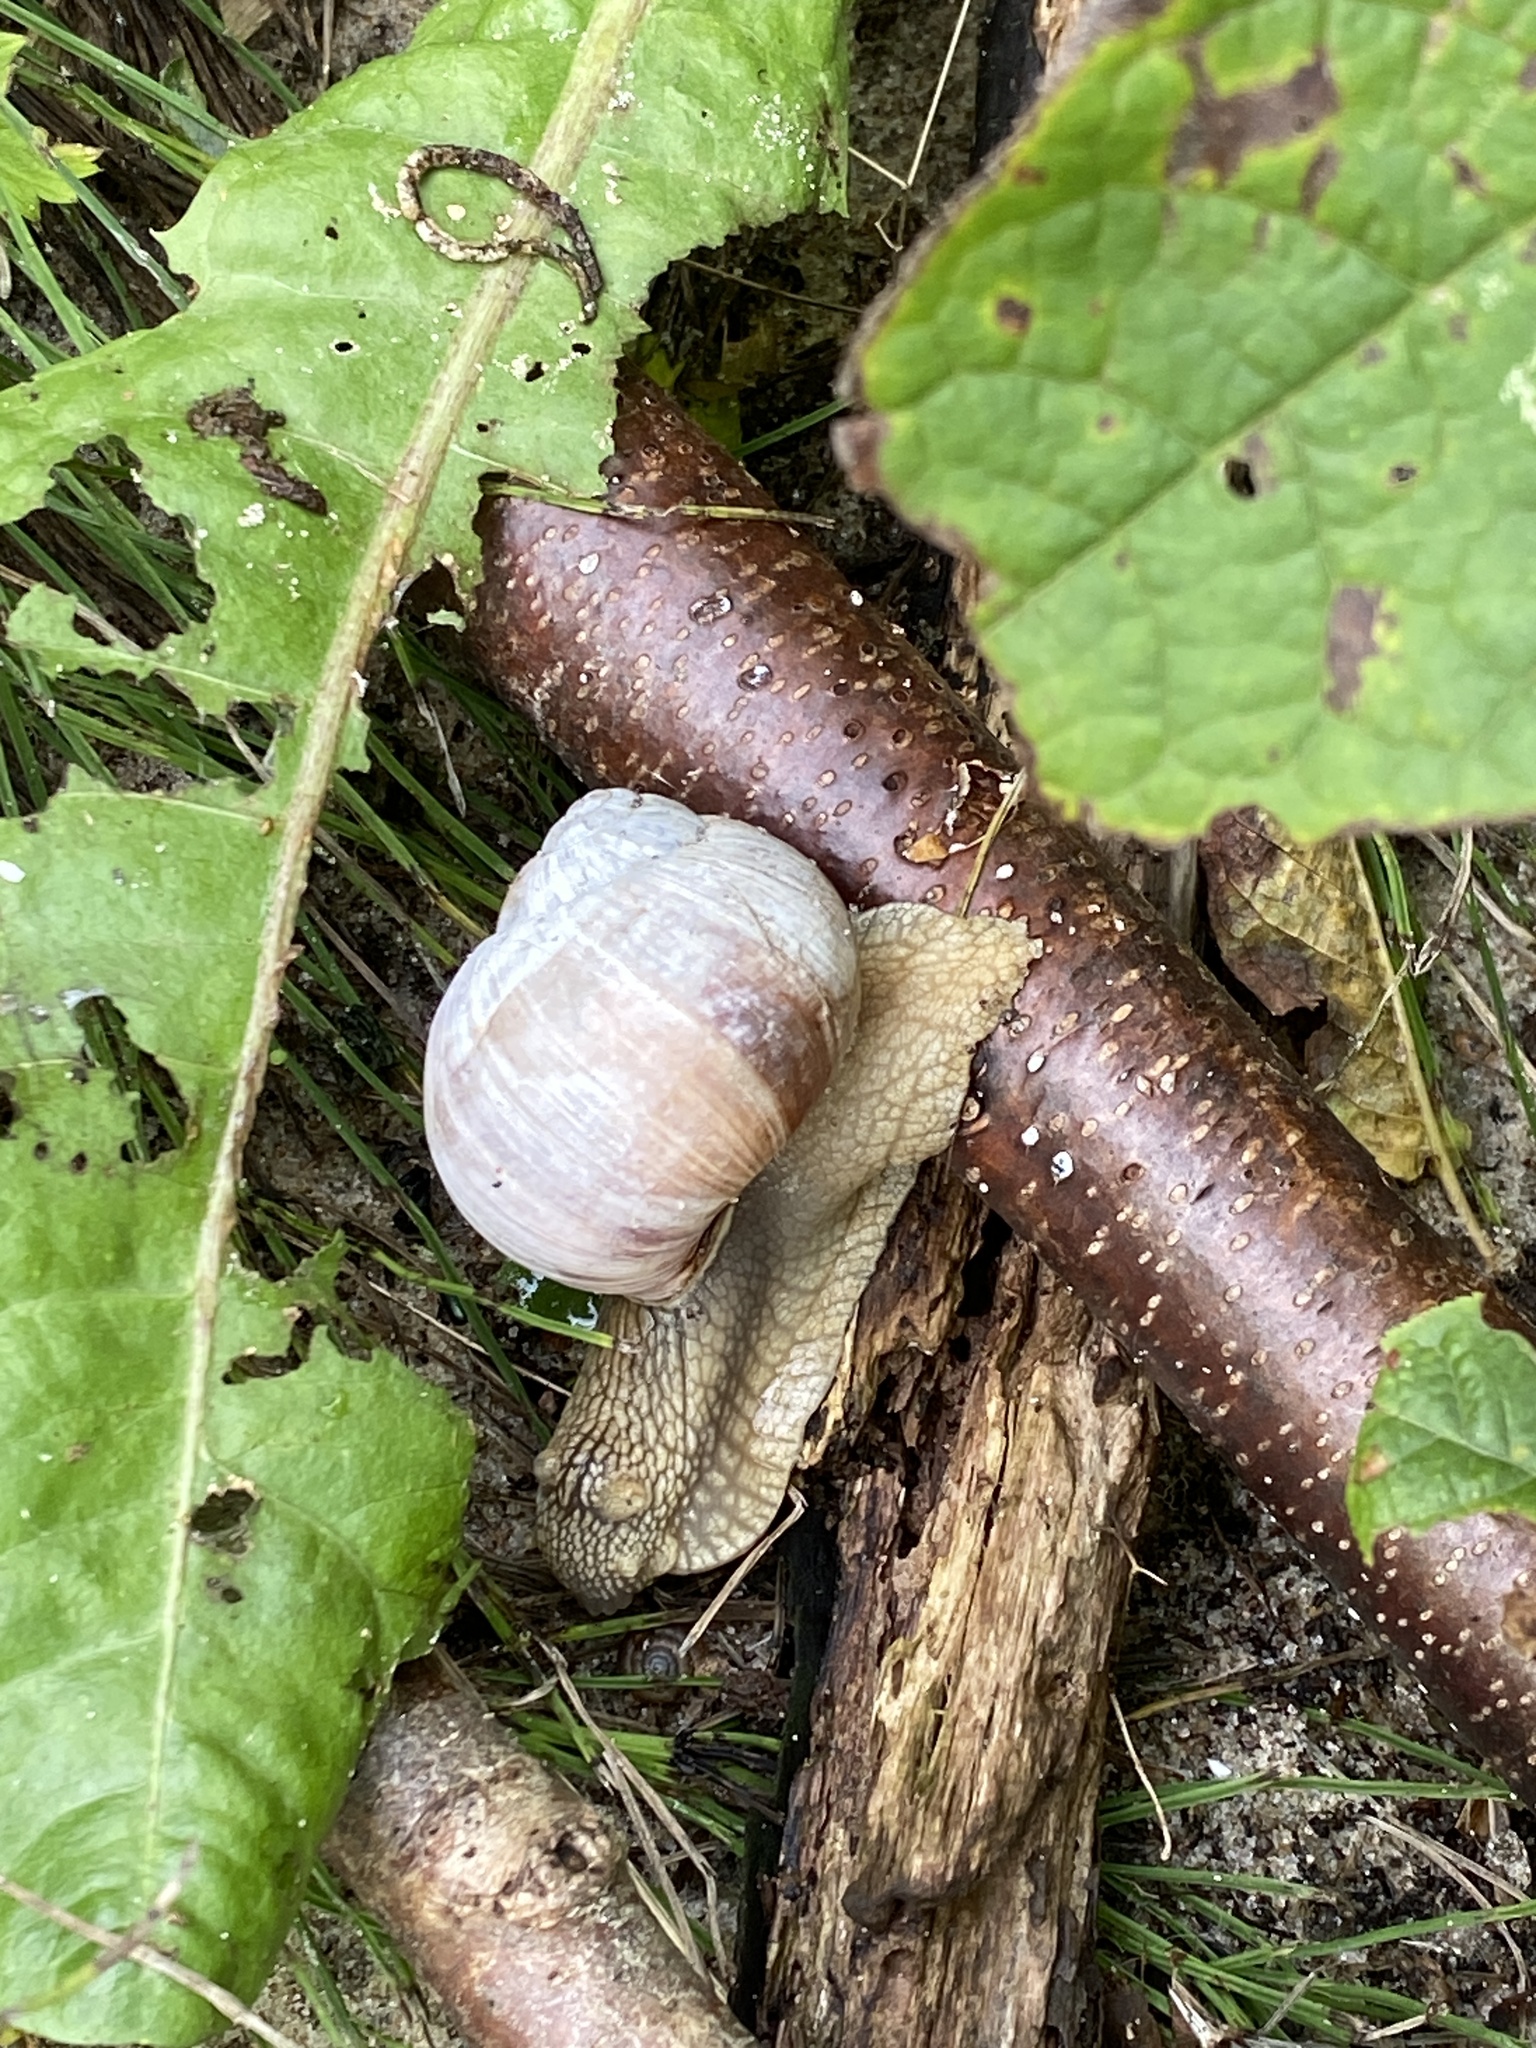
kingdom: Animalia
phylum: Mollusca
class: Gastropoda
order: Stylommatophora
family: Helicidae
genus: Helix
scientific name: Helix pomatia
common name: Roman snail
